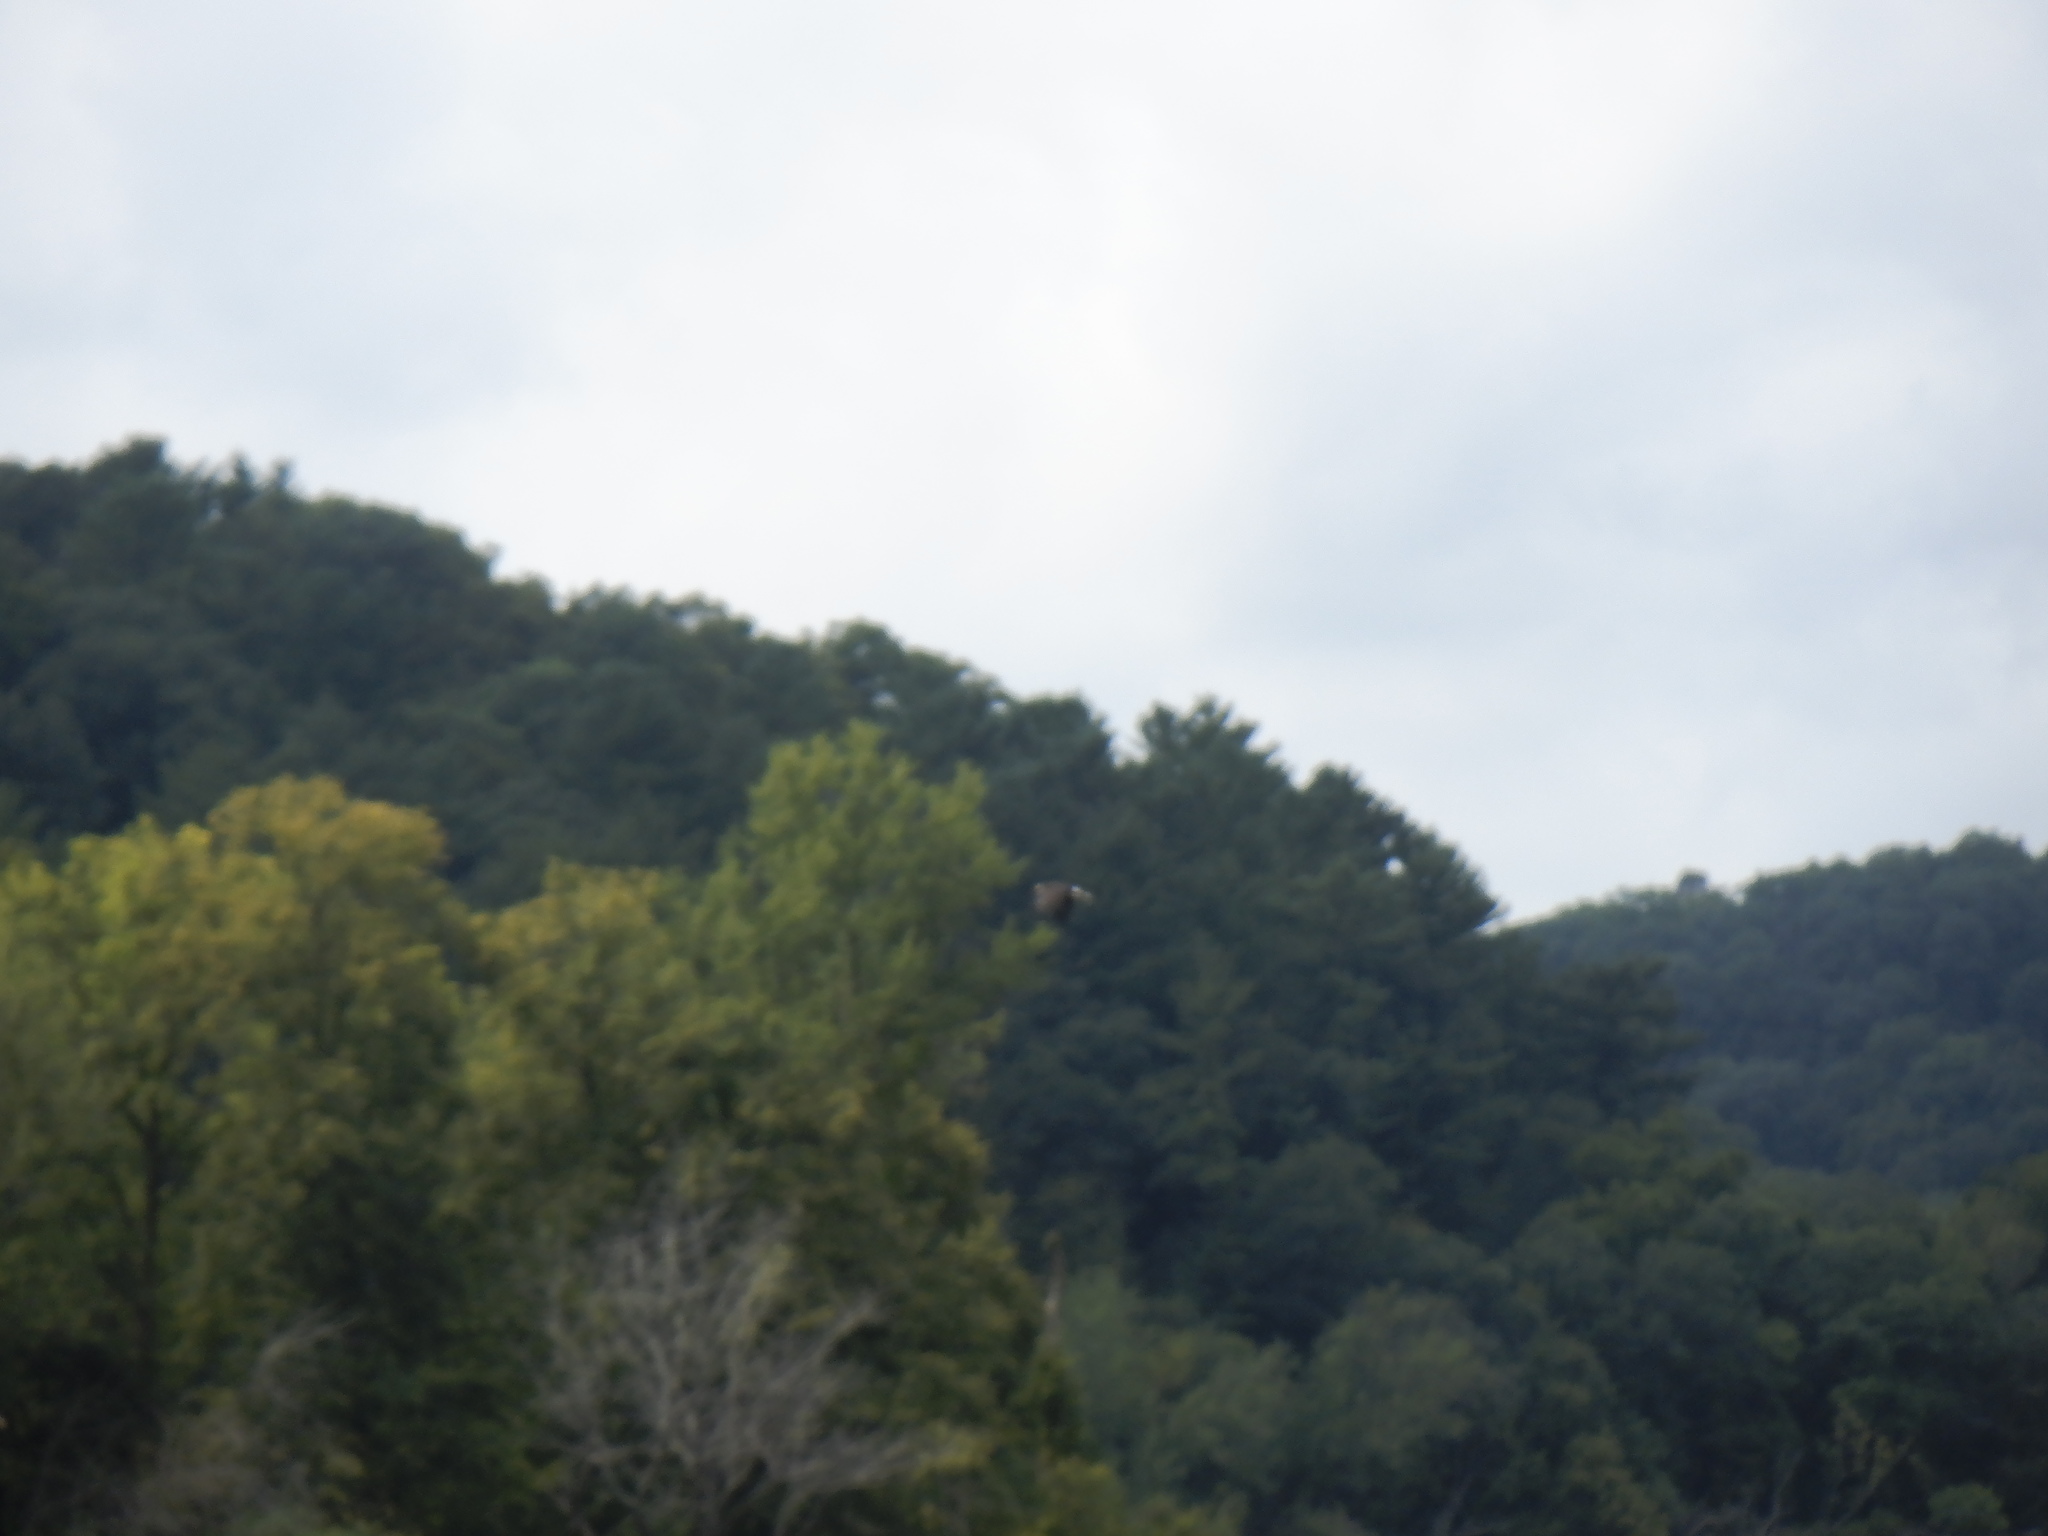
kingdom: Animalia
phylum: Chordata
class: Aves
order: Accipitriformes
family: Accipitridae
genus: Haliaeetus
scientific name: Haliaeetus leucocephalus
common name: Bald eagle
